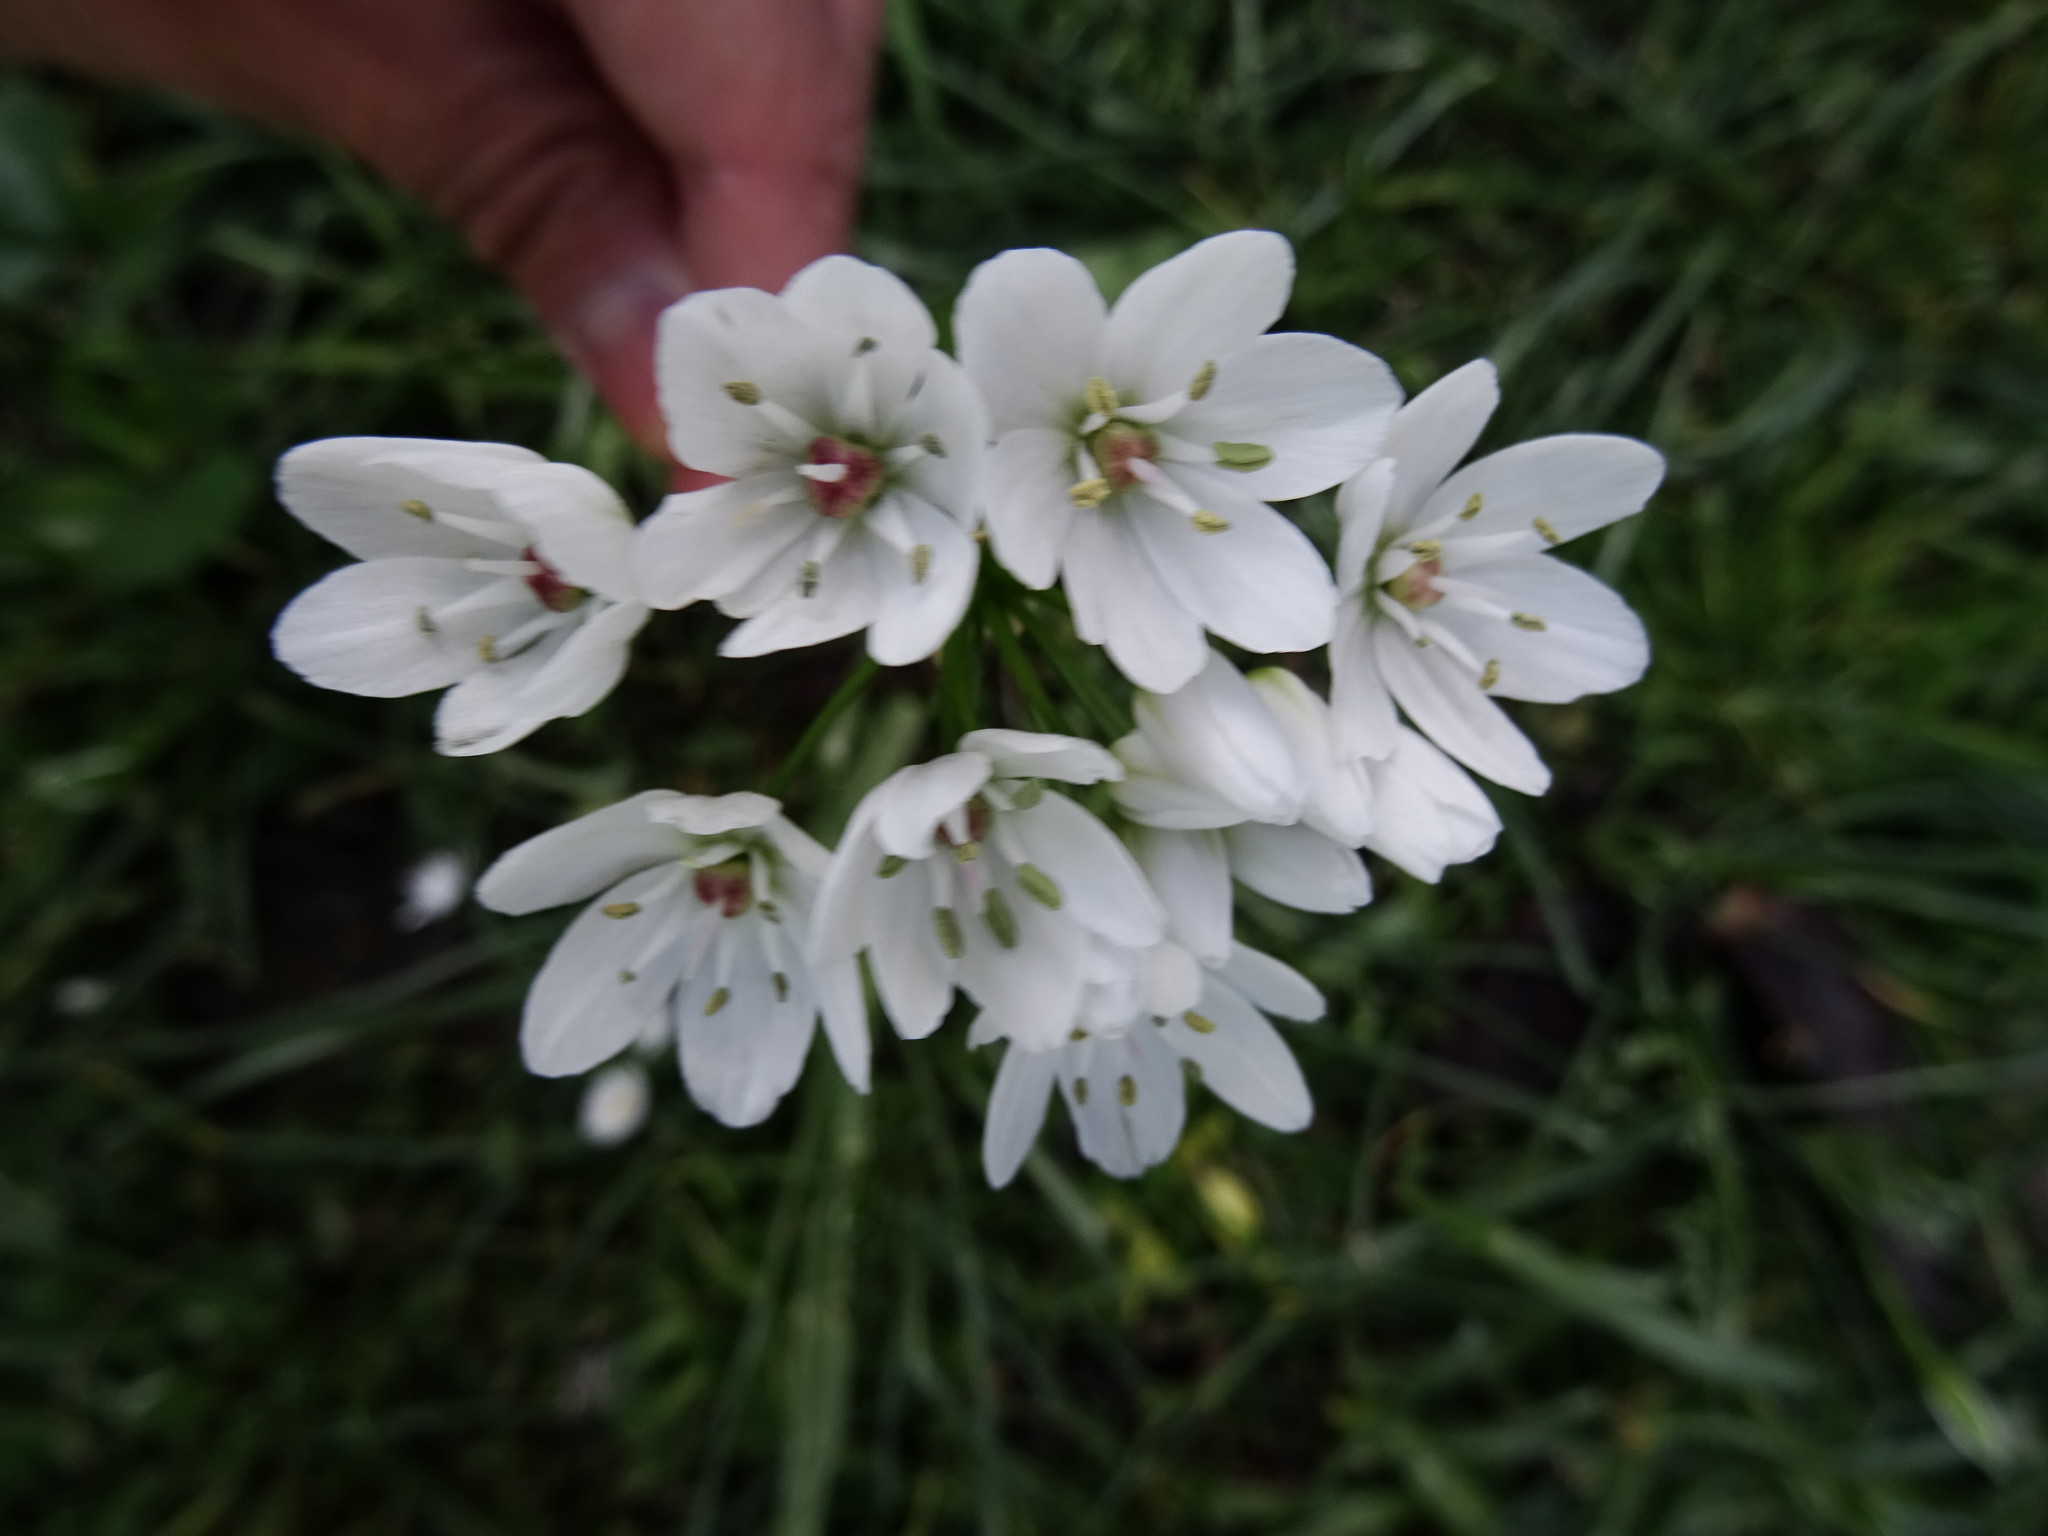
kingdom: Plantae
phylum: Tracheophyta
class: Liliopsida
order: Asparagales
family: Amaryllidaceae
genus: Allium
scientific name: Allium neapolitanum
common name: Neapolitan garlic
